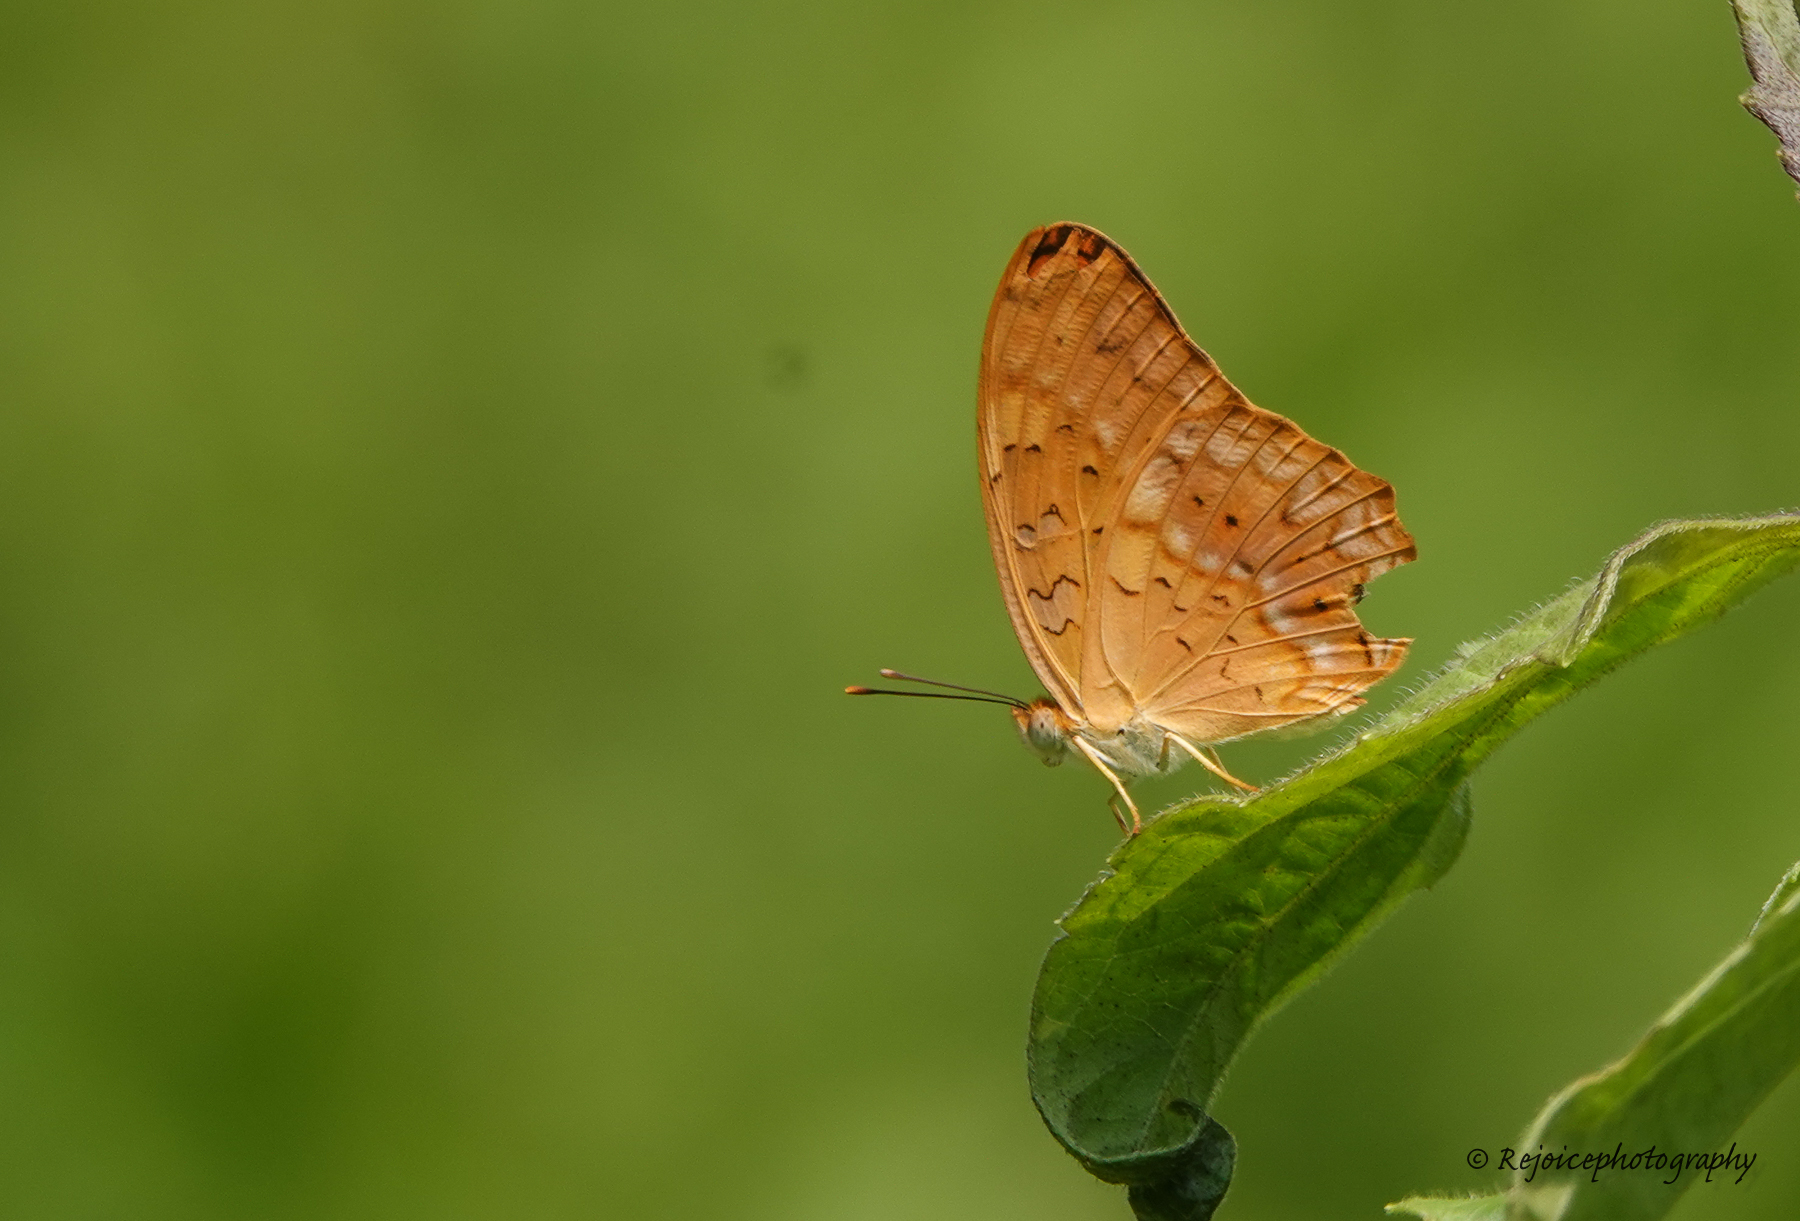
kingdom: Animalia
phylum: Arthropoda
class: Insecta
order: Lepidoptera
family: Nymphalidae
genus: Phalanta
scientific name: Phalanta phalantha
